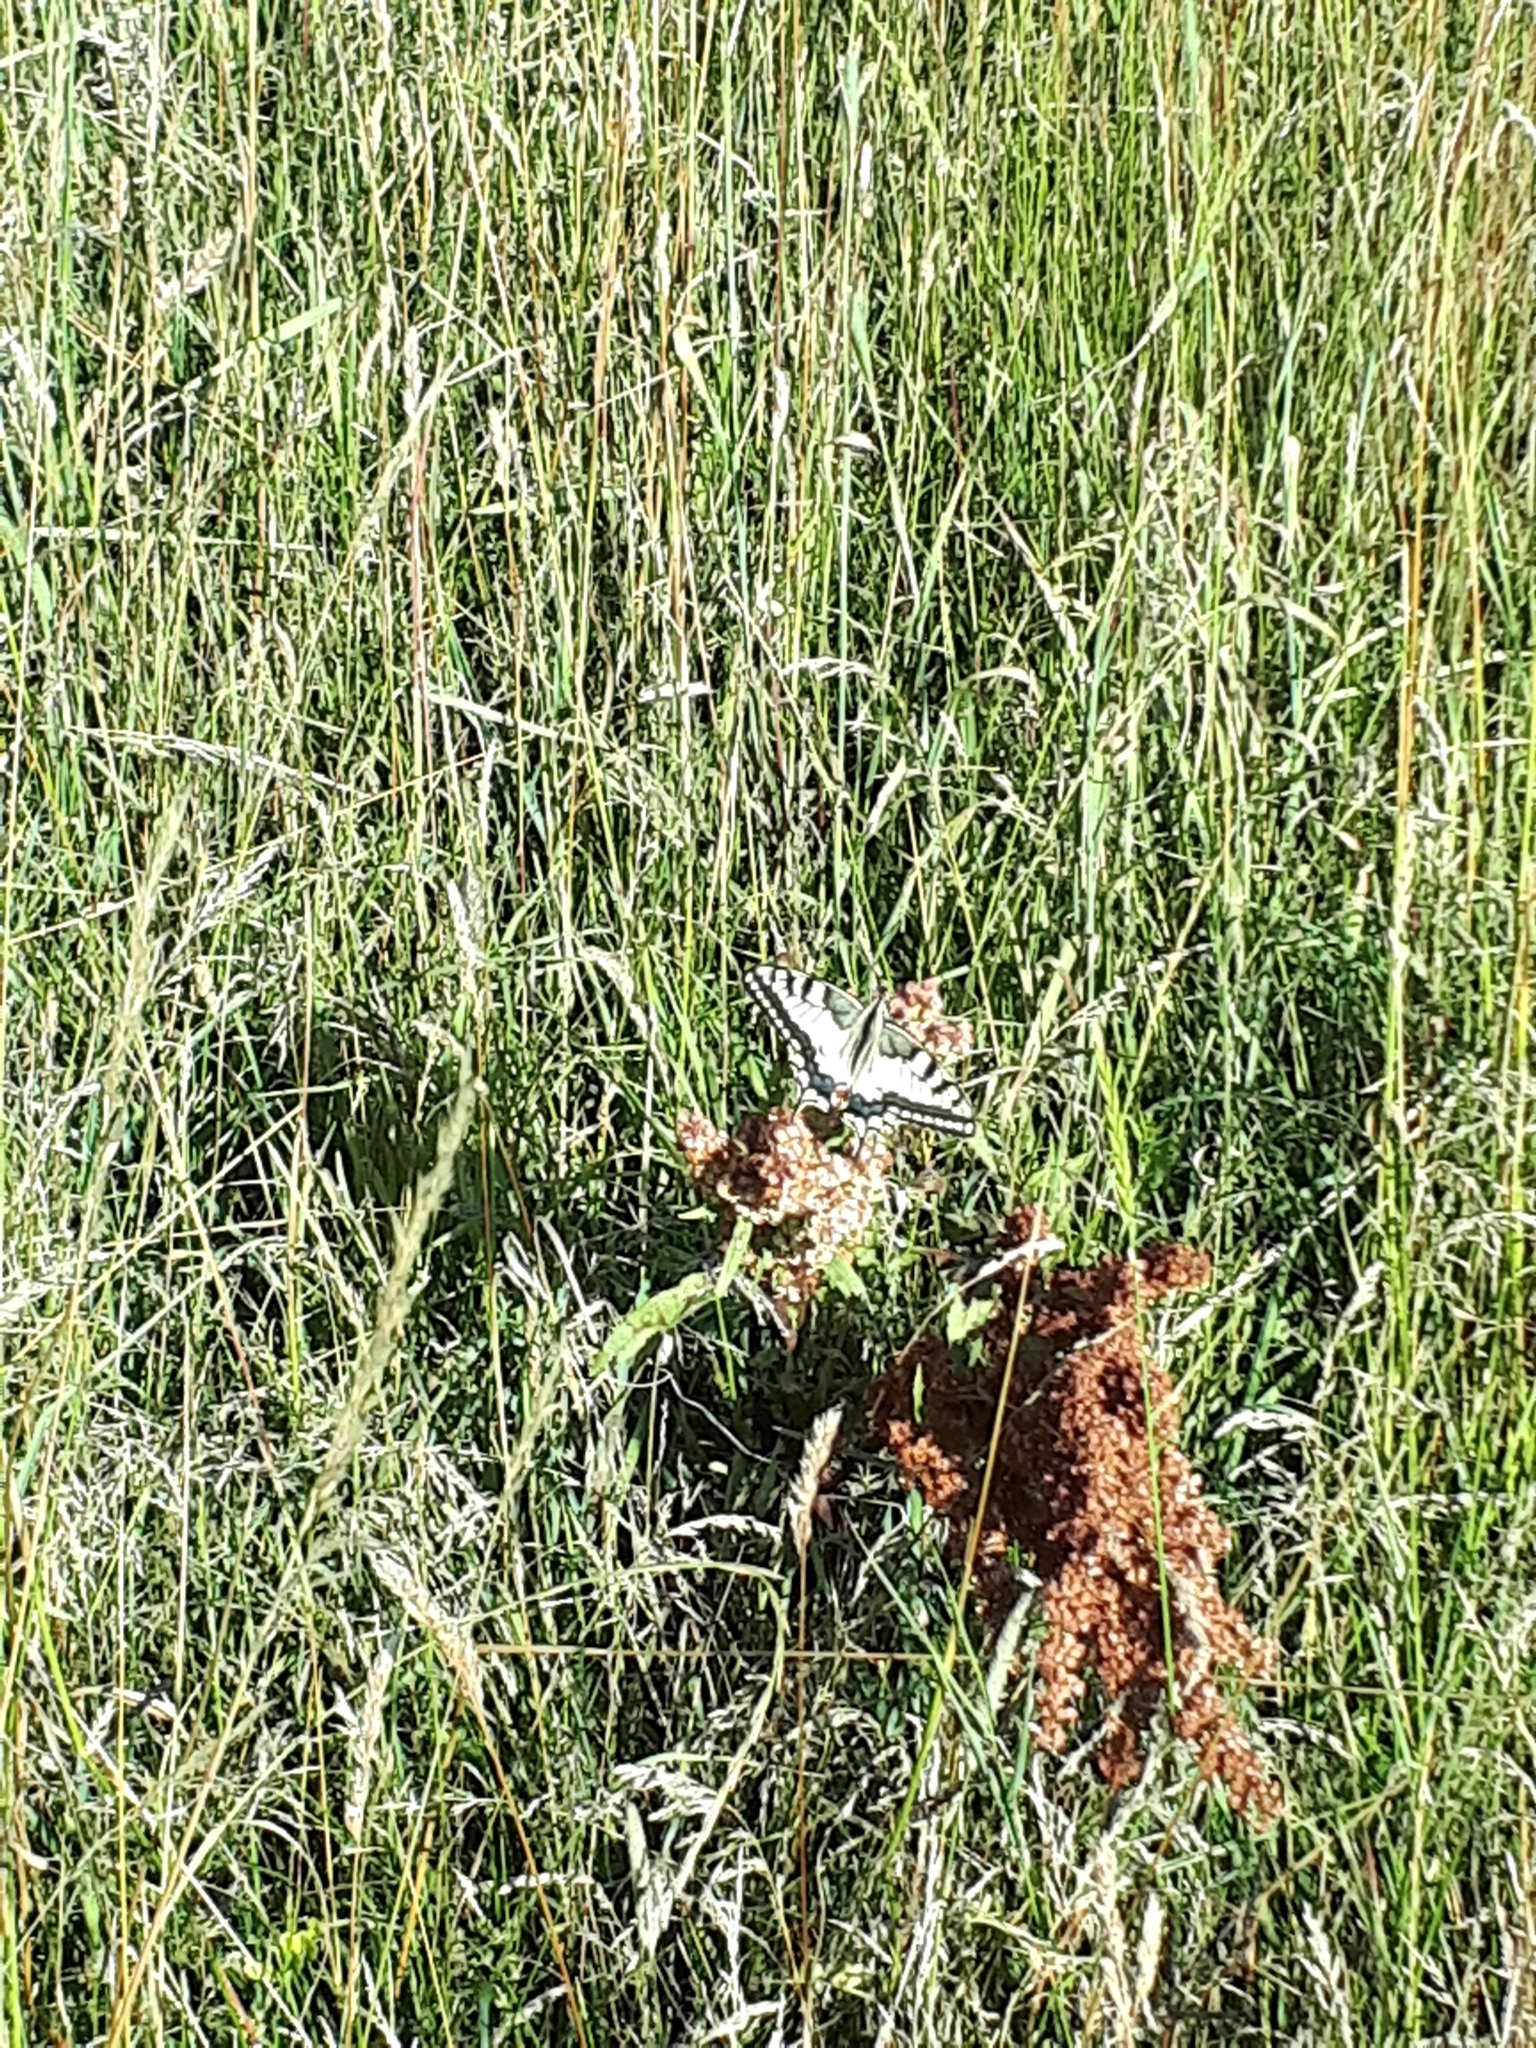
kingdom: Animalia
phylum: Arthropoda
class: Insecta
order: Lepidoptera
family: Papilionidae
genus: Papilio
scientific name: Papilio machaon
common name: Swallowtail
